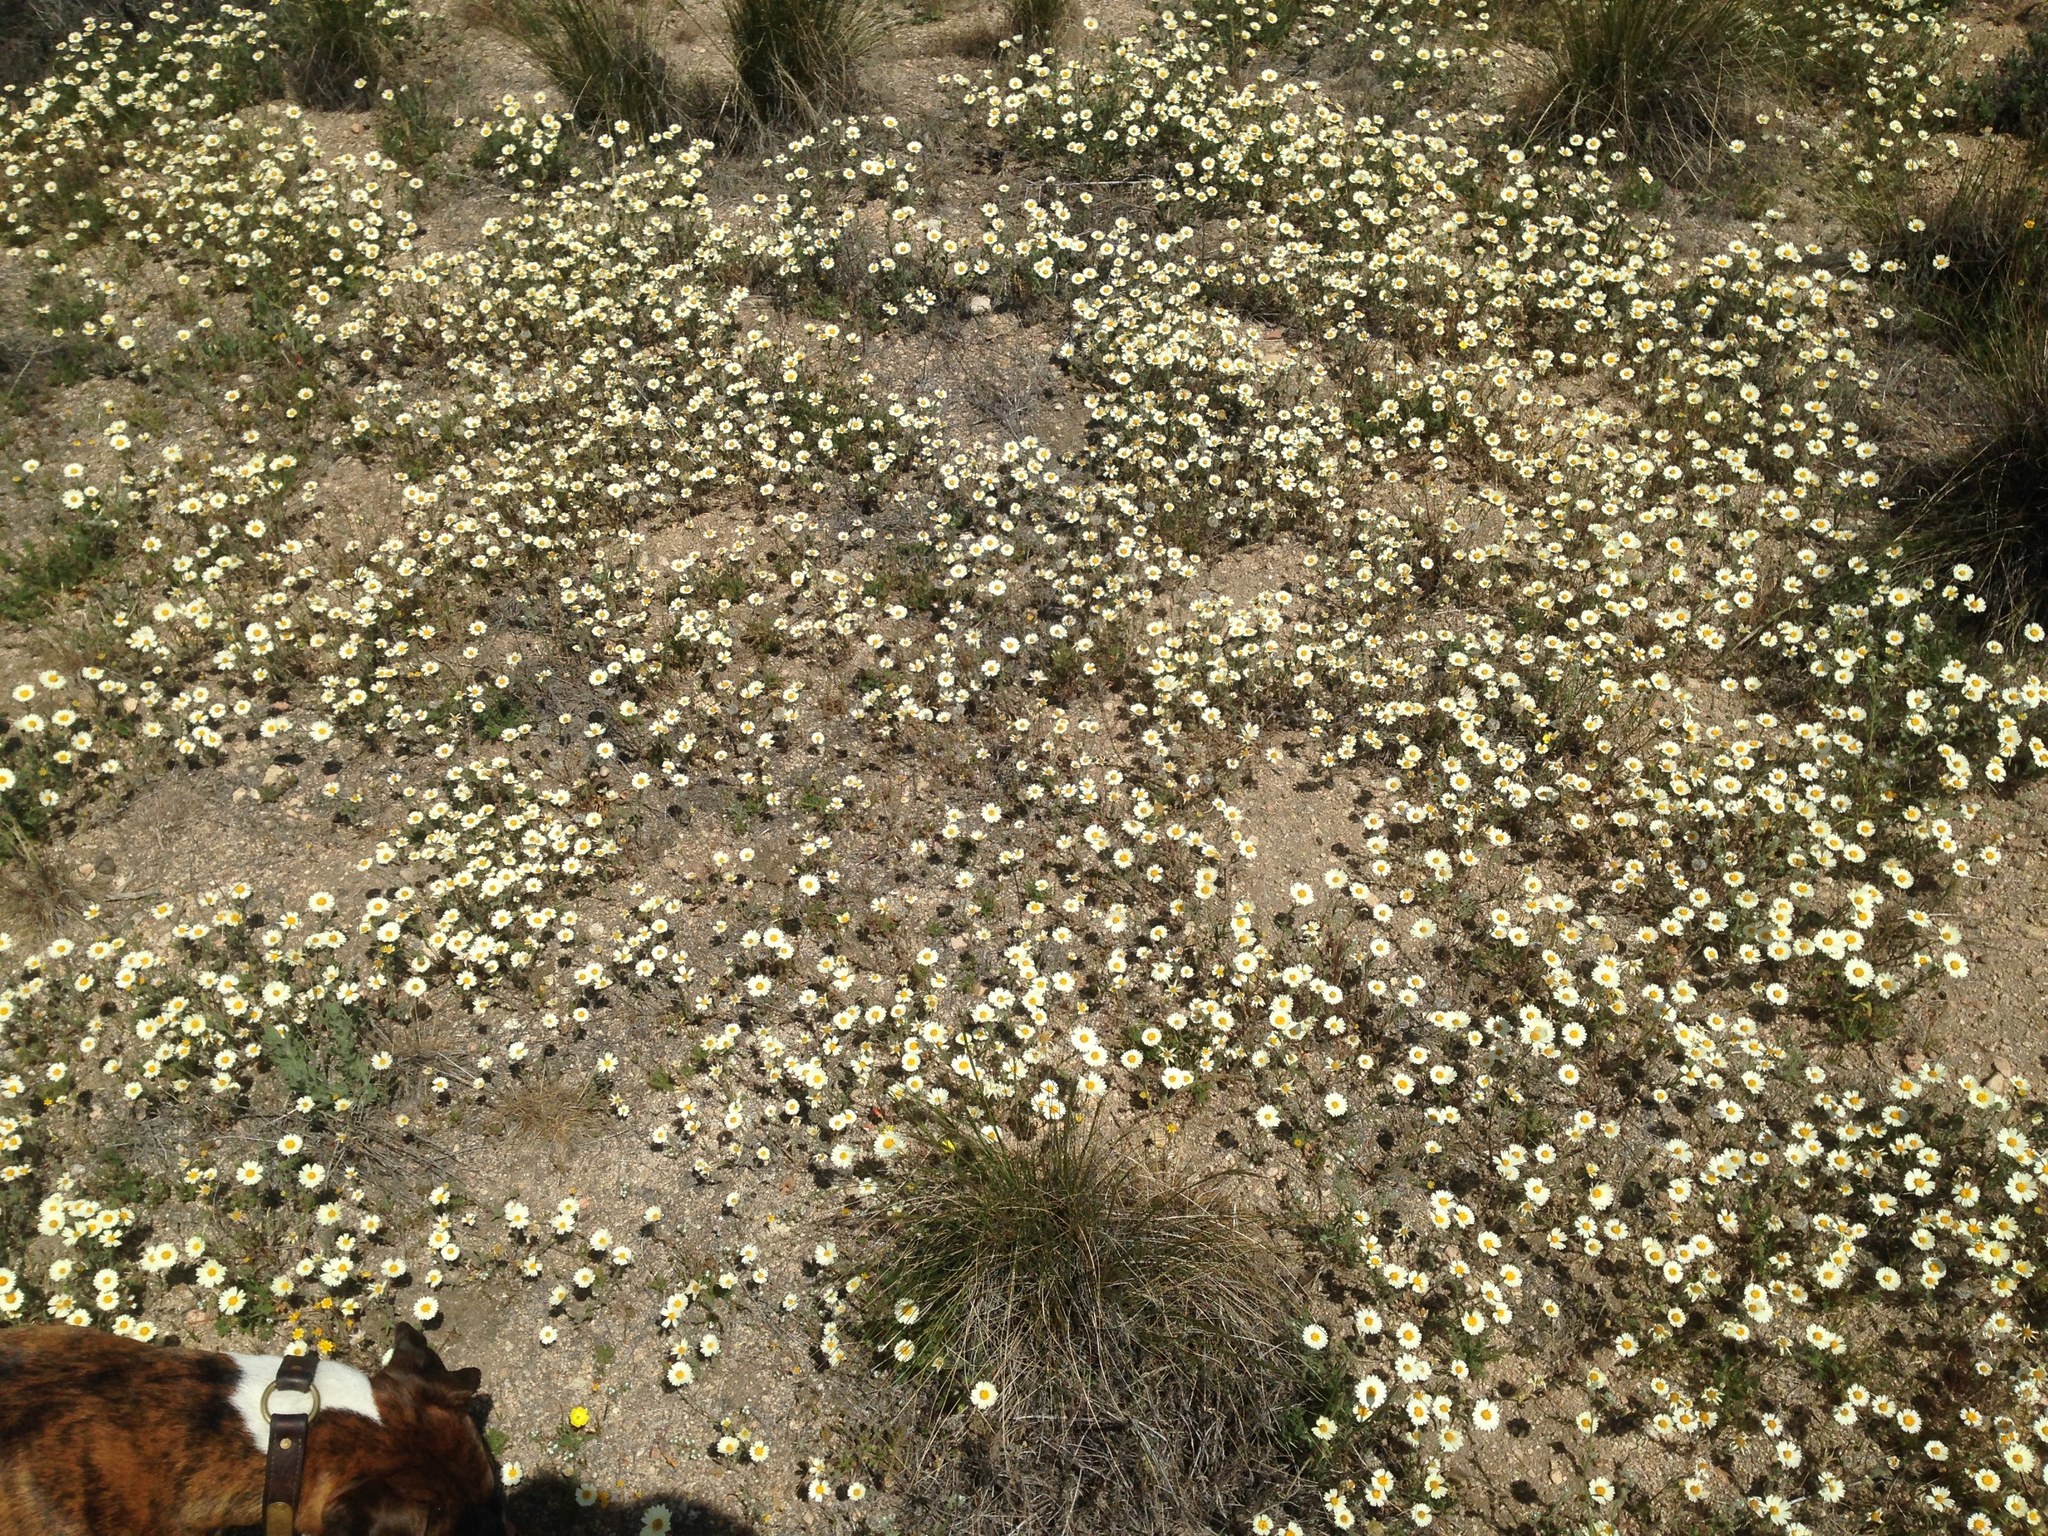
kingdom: Plantae
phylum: Tracheophyta
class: Magnoliopsida
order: Asterales
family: Asteraceae
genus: Layia
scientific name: Layia glandulosa
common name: White layia
